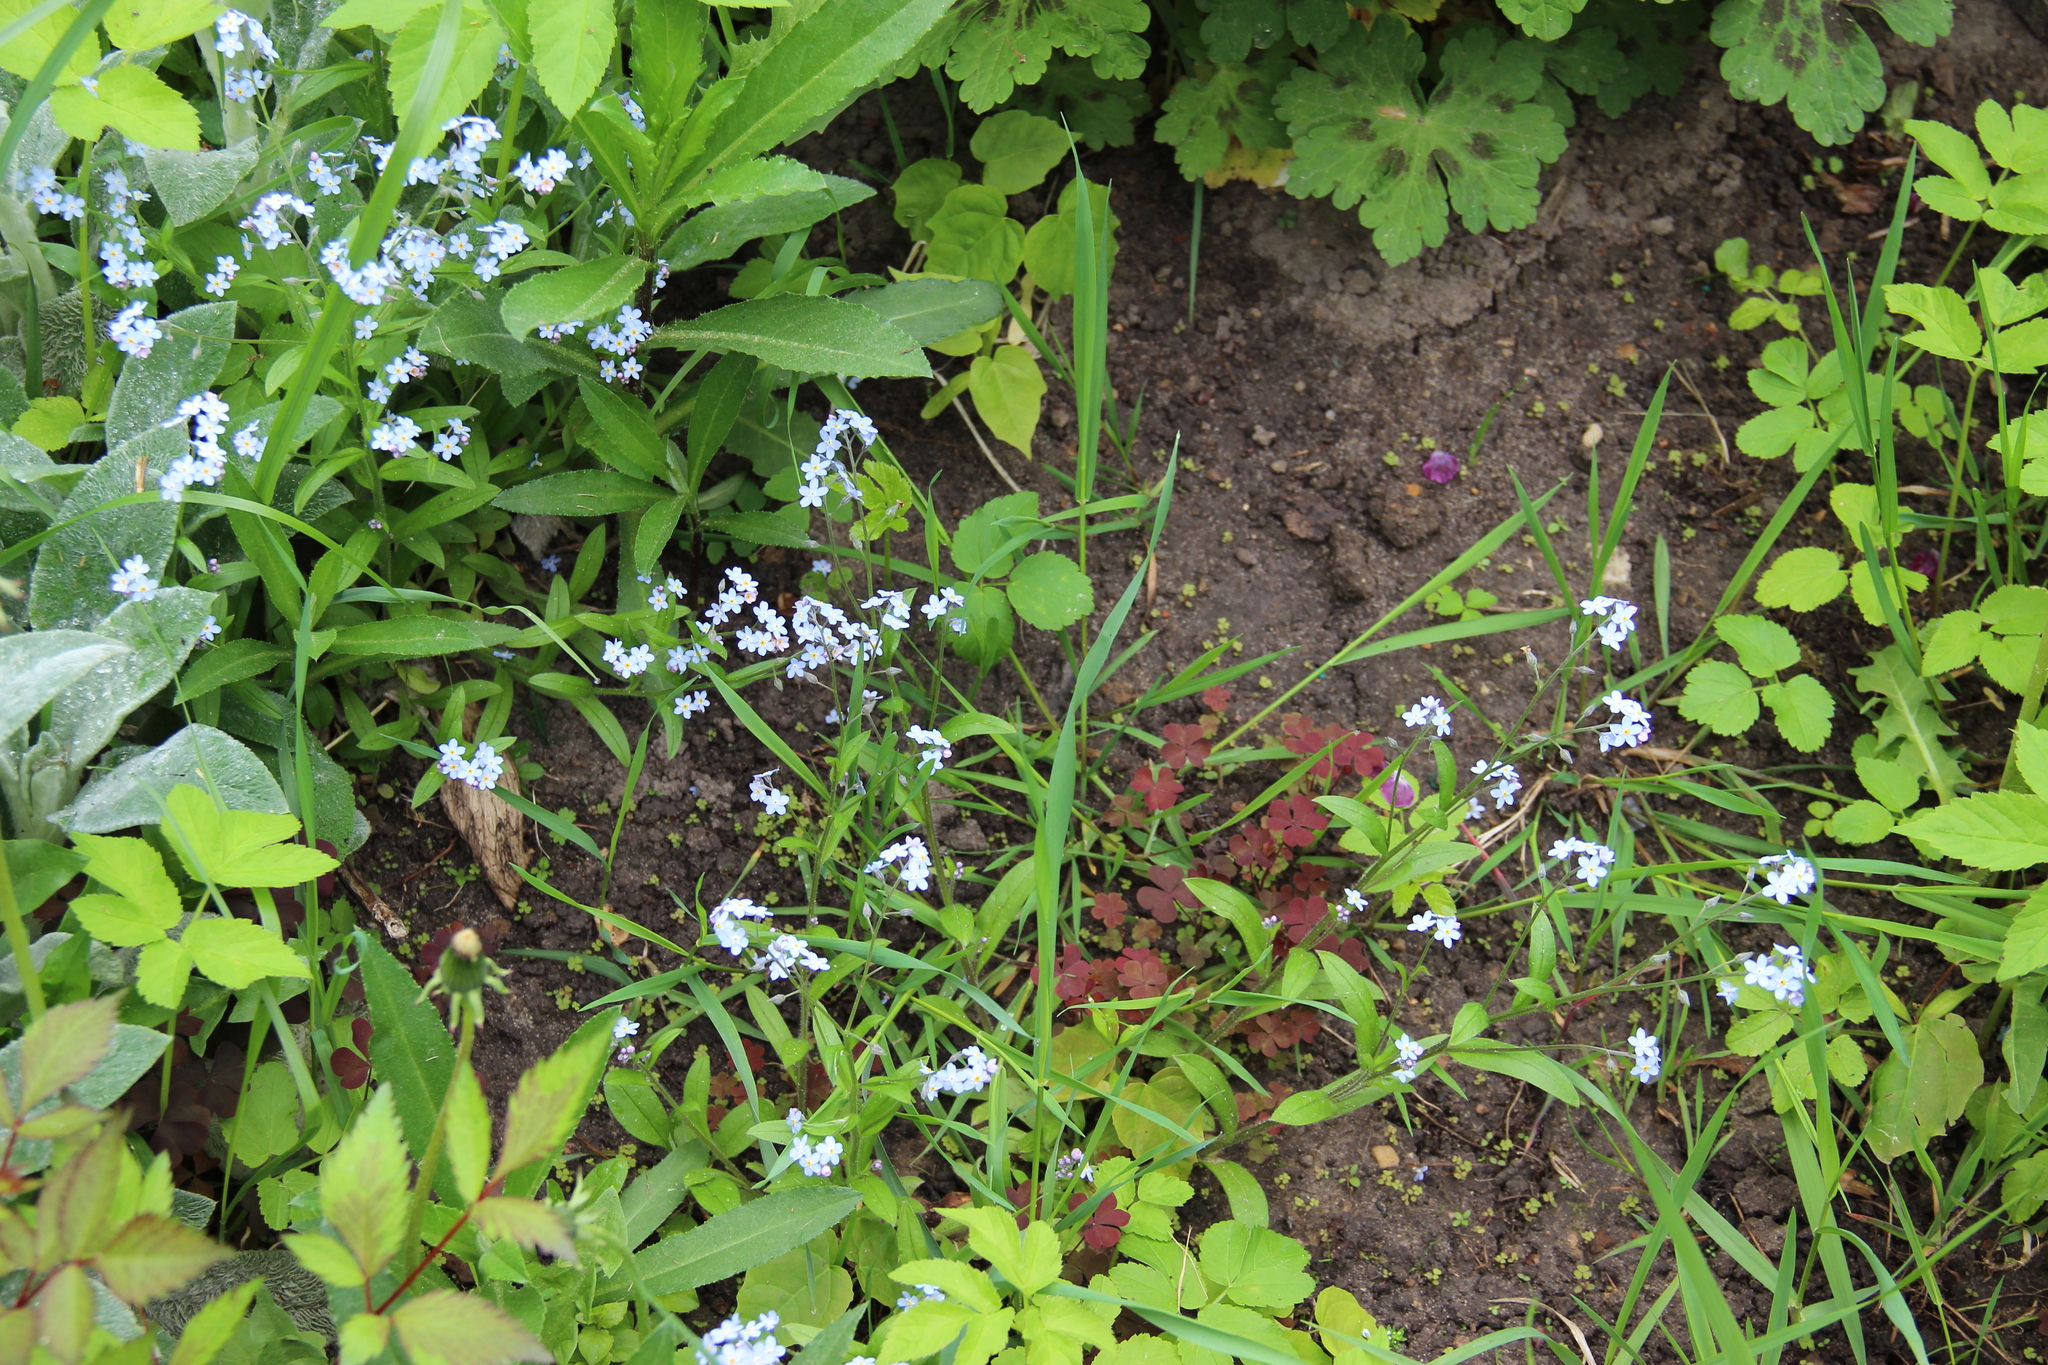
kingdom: Plantae
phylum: Tracheophyta
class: Magnoliopsida
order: Boraginales
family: Boraginaceae
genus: Myosotis
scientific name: Myosotis sylvatica
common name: Wood forget-me-not
